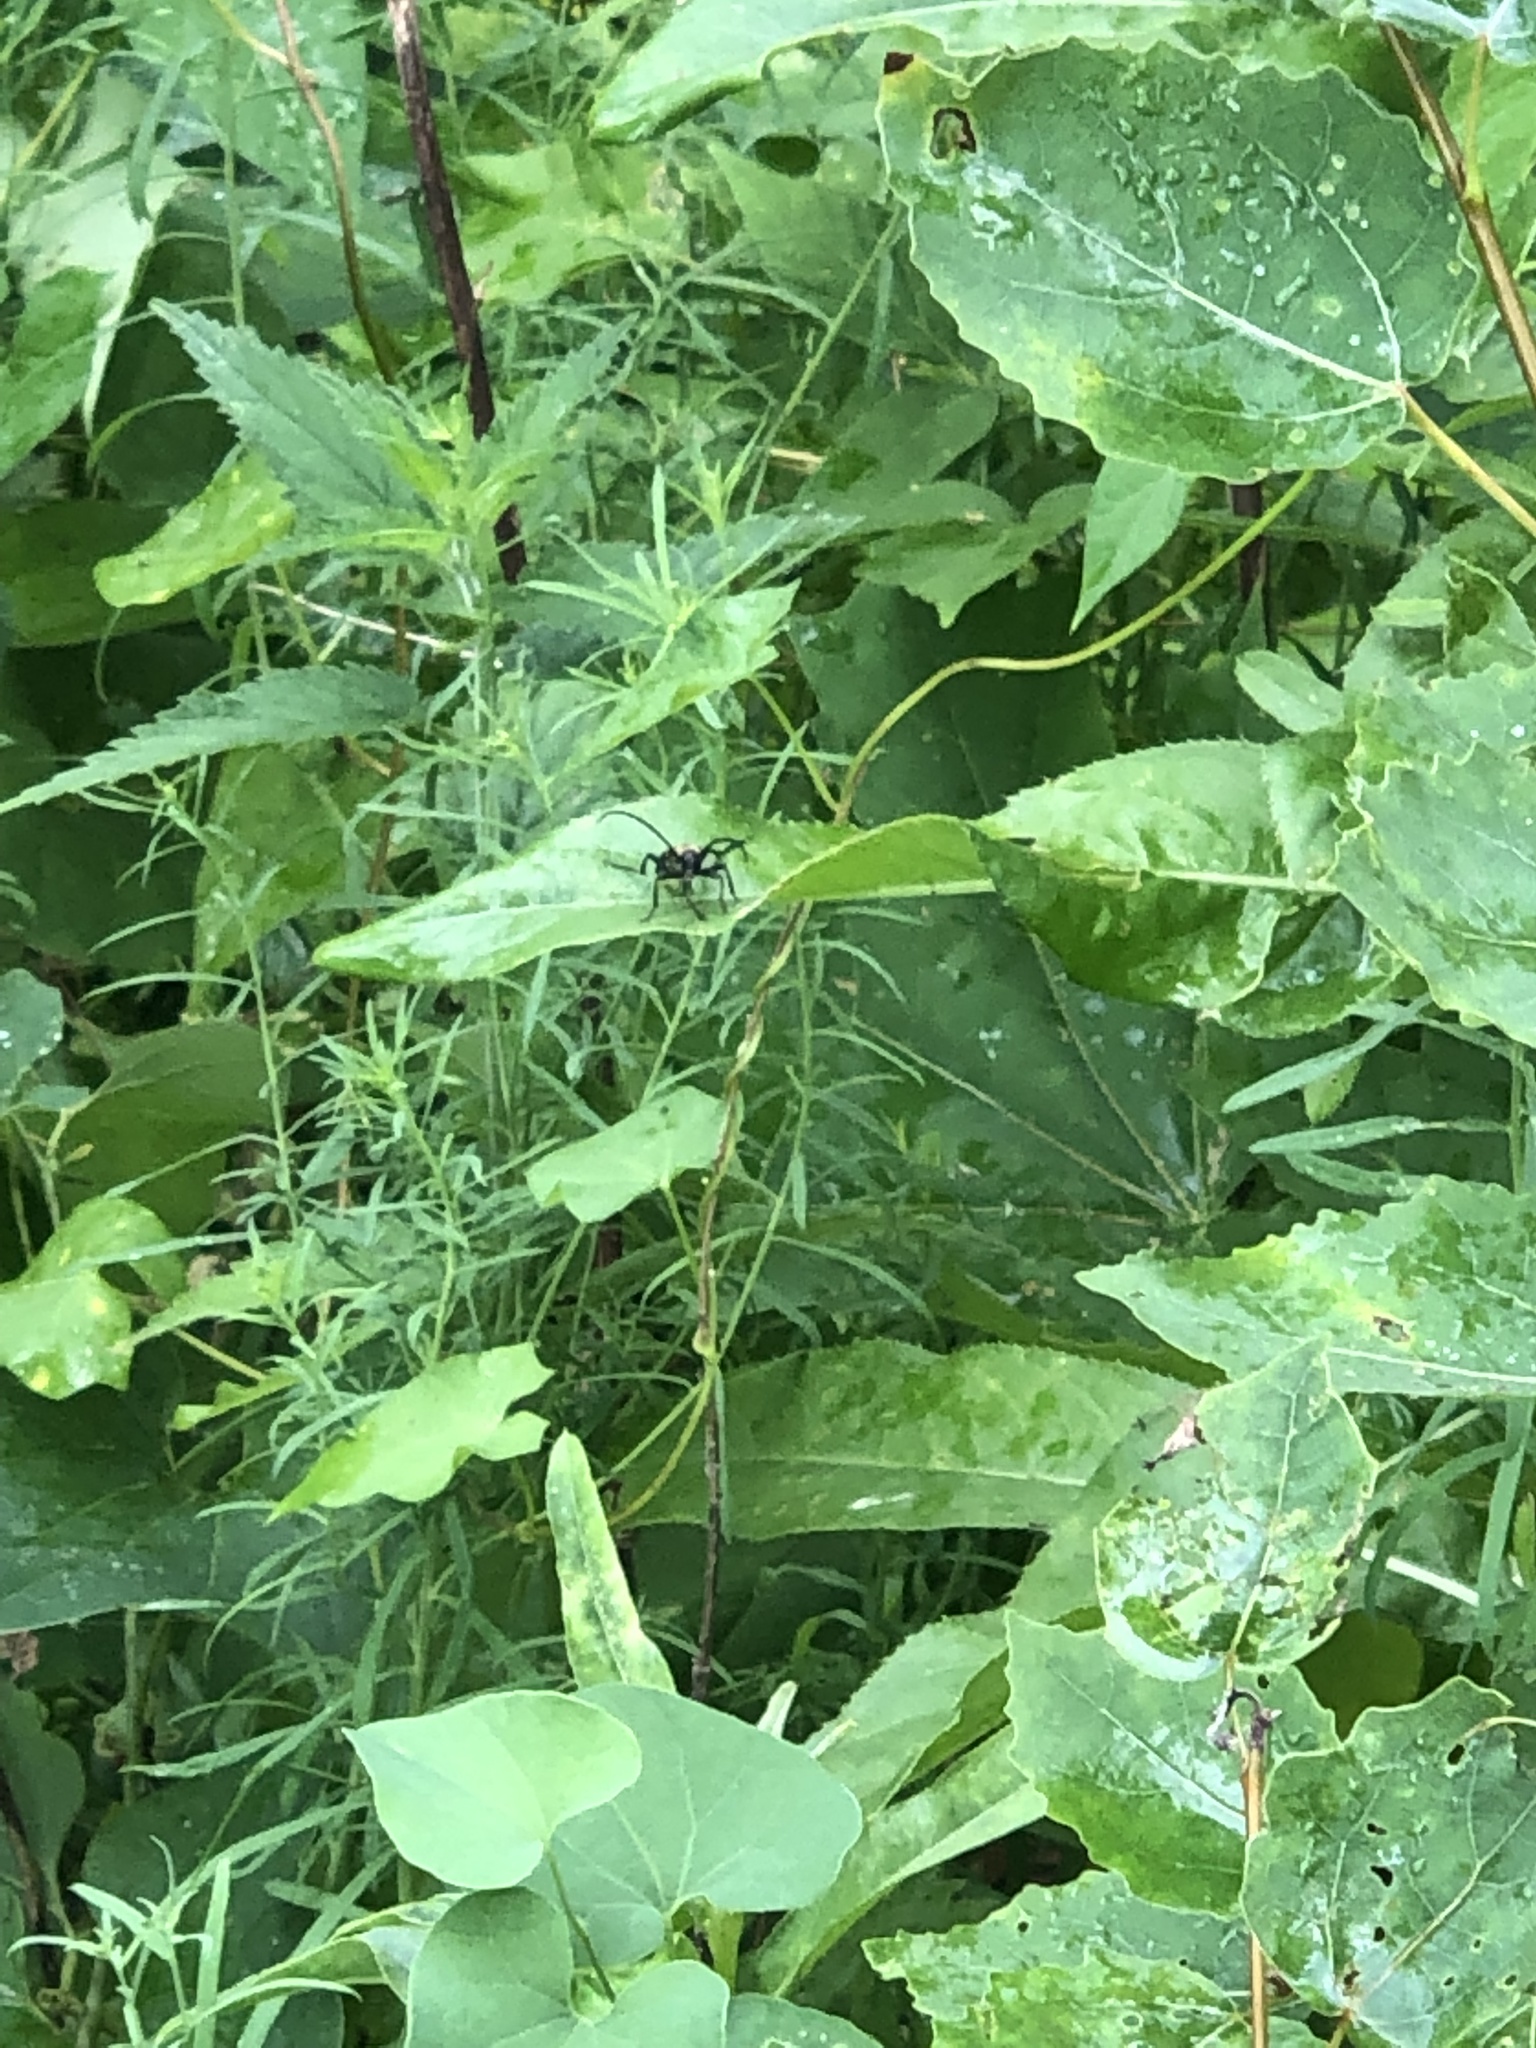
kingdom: Animalia
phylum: Arthropoda
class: Insecta
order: Coleoptera
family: Cerambycidae
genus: Leptura
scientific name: Leptura quadrifasciata
